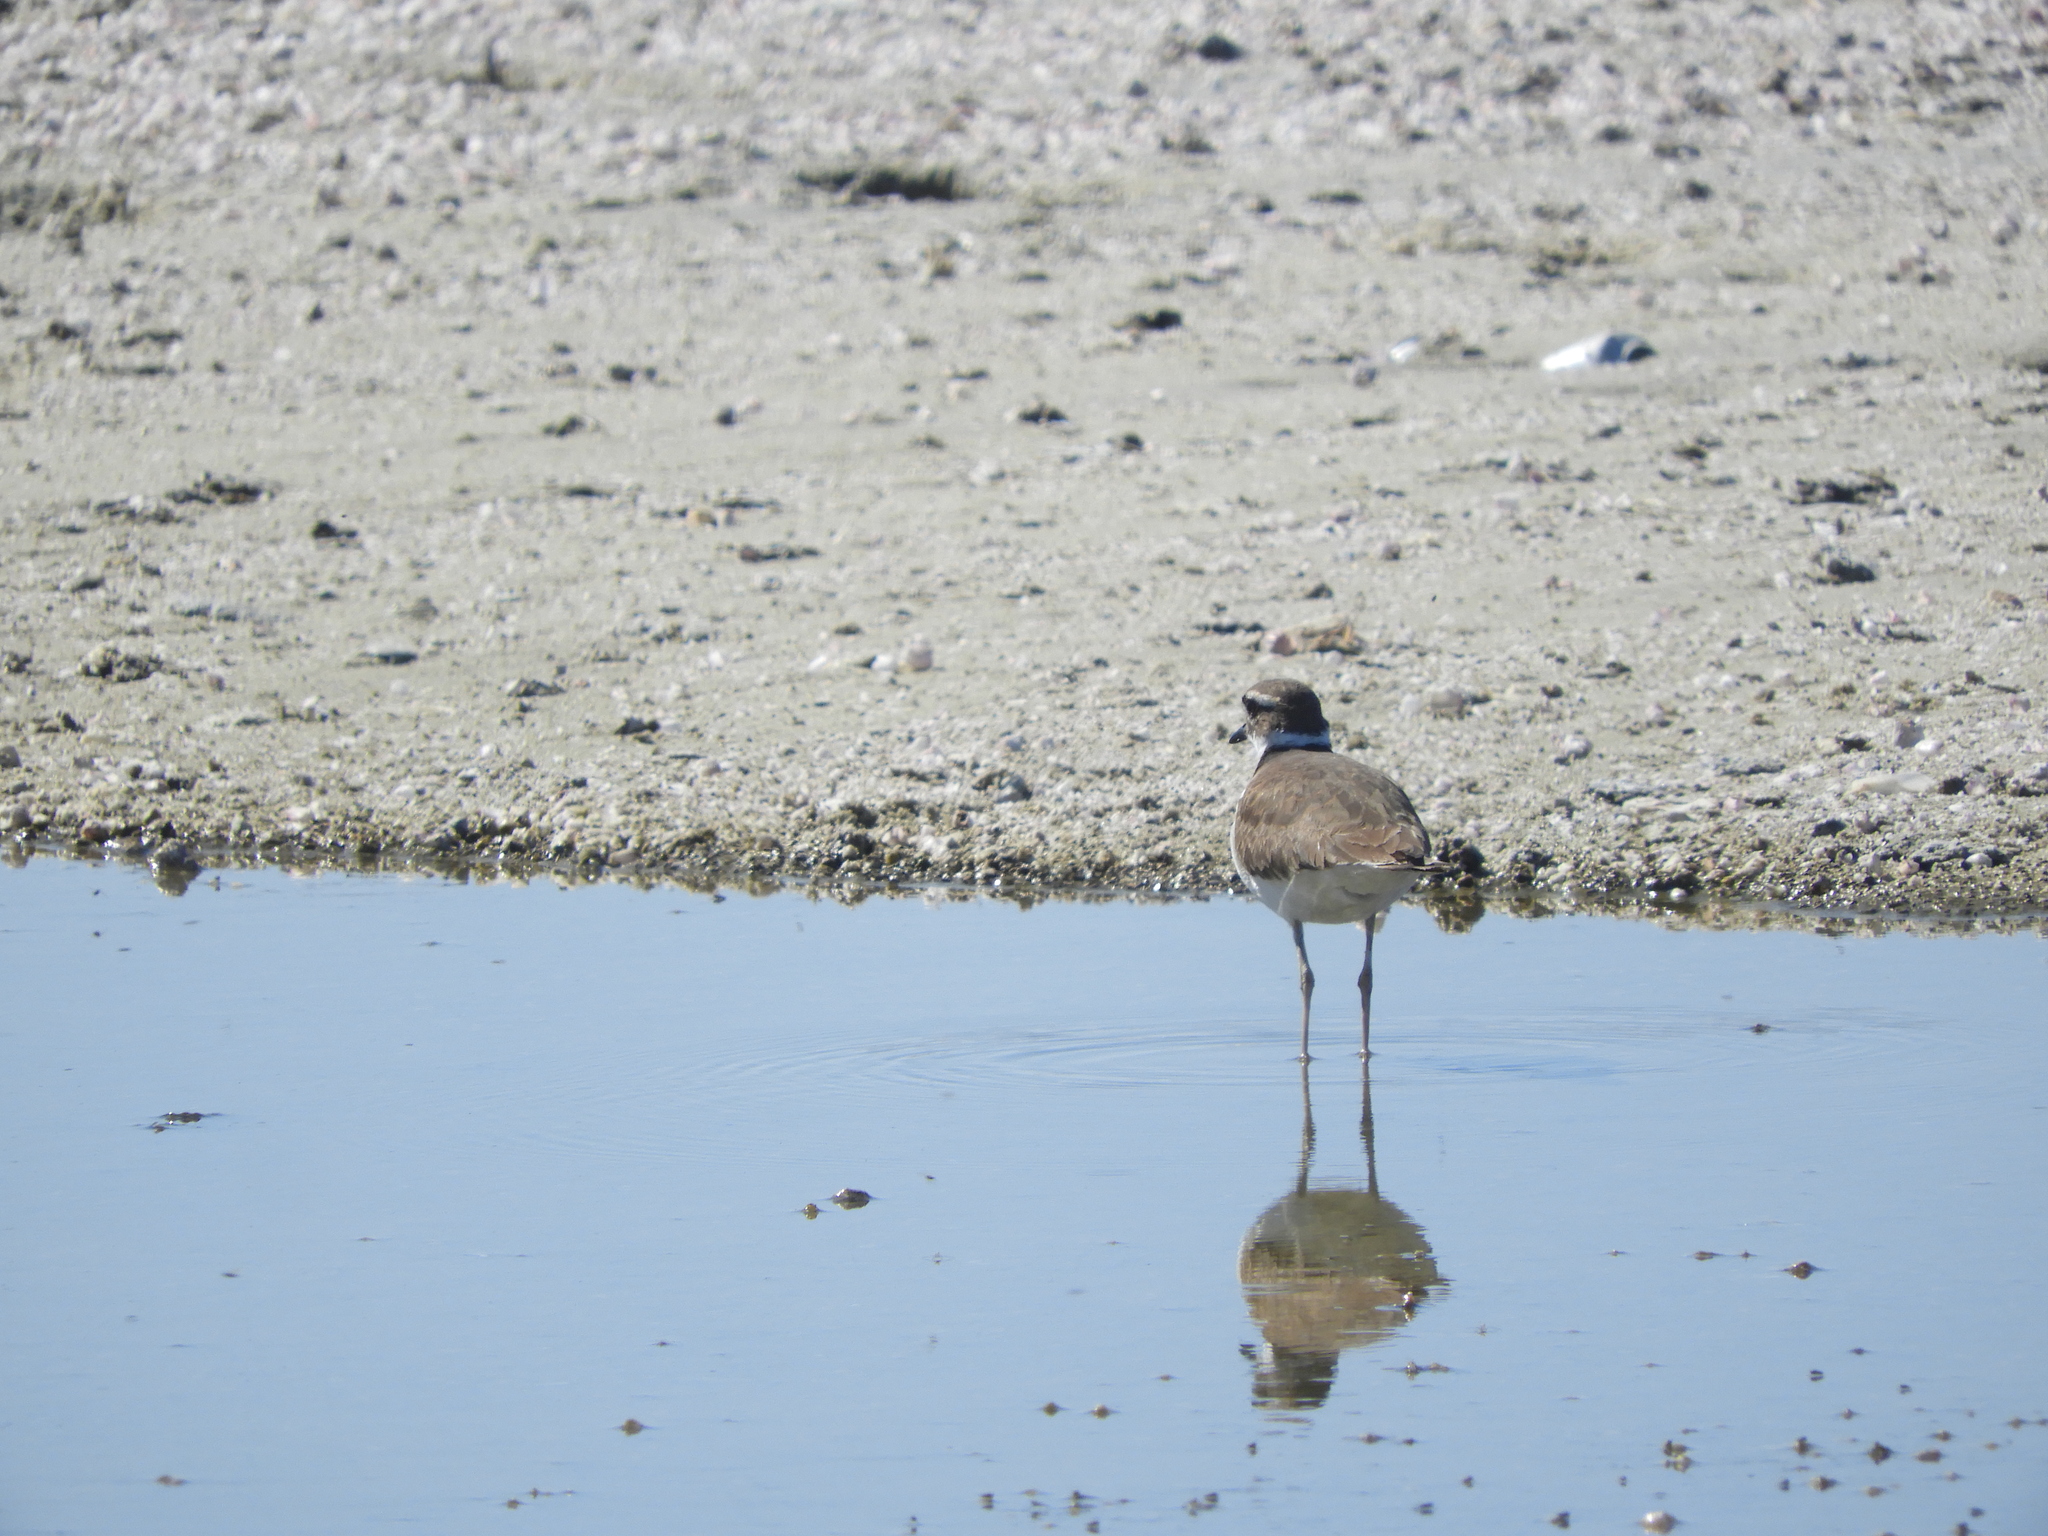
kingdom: Animalia
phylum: Chordata
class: Aves
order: Charadriiformes
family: Charadriidae
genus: Charadrius
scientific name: Charadrius vociferus
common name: Killdeer
